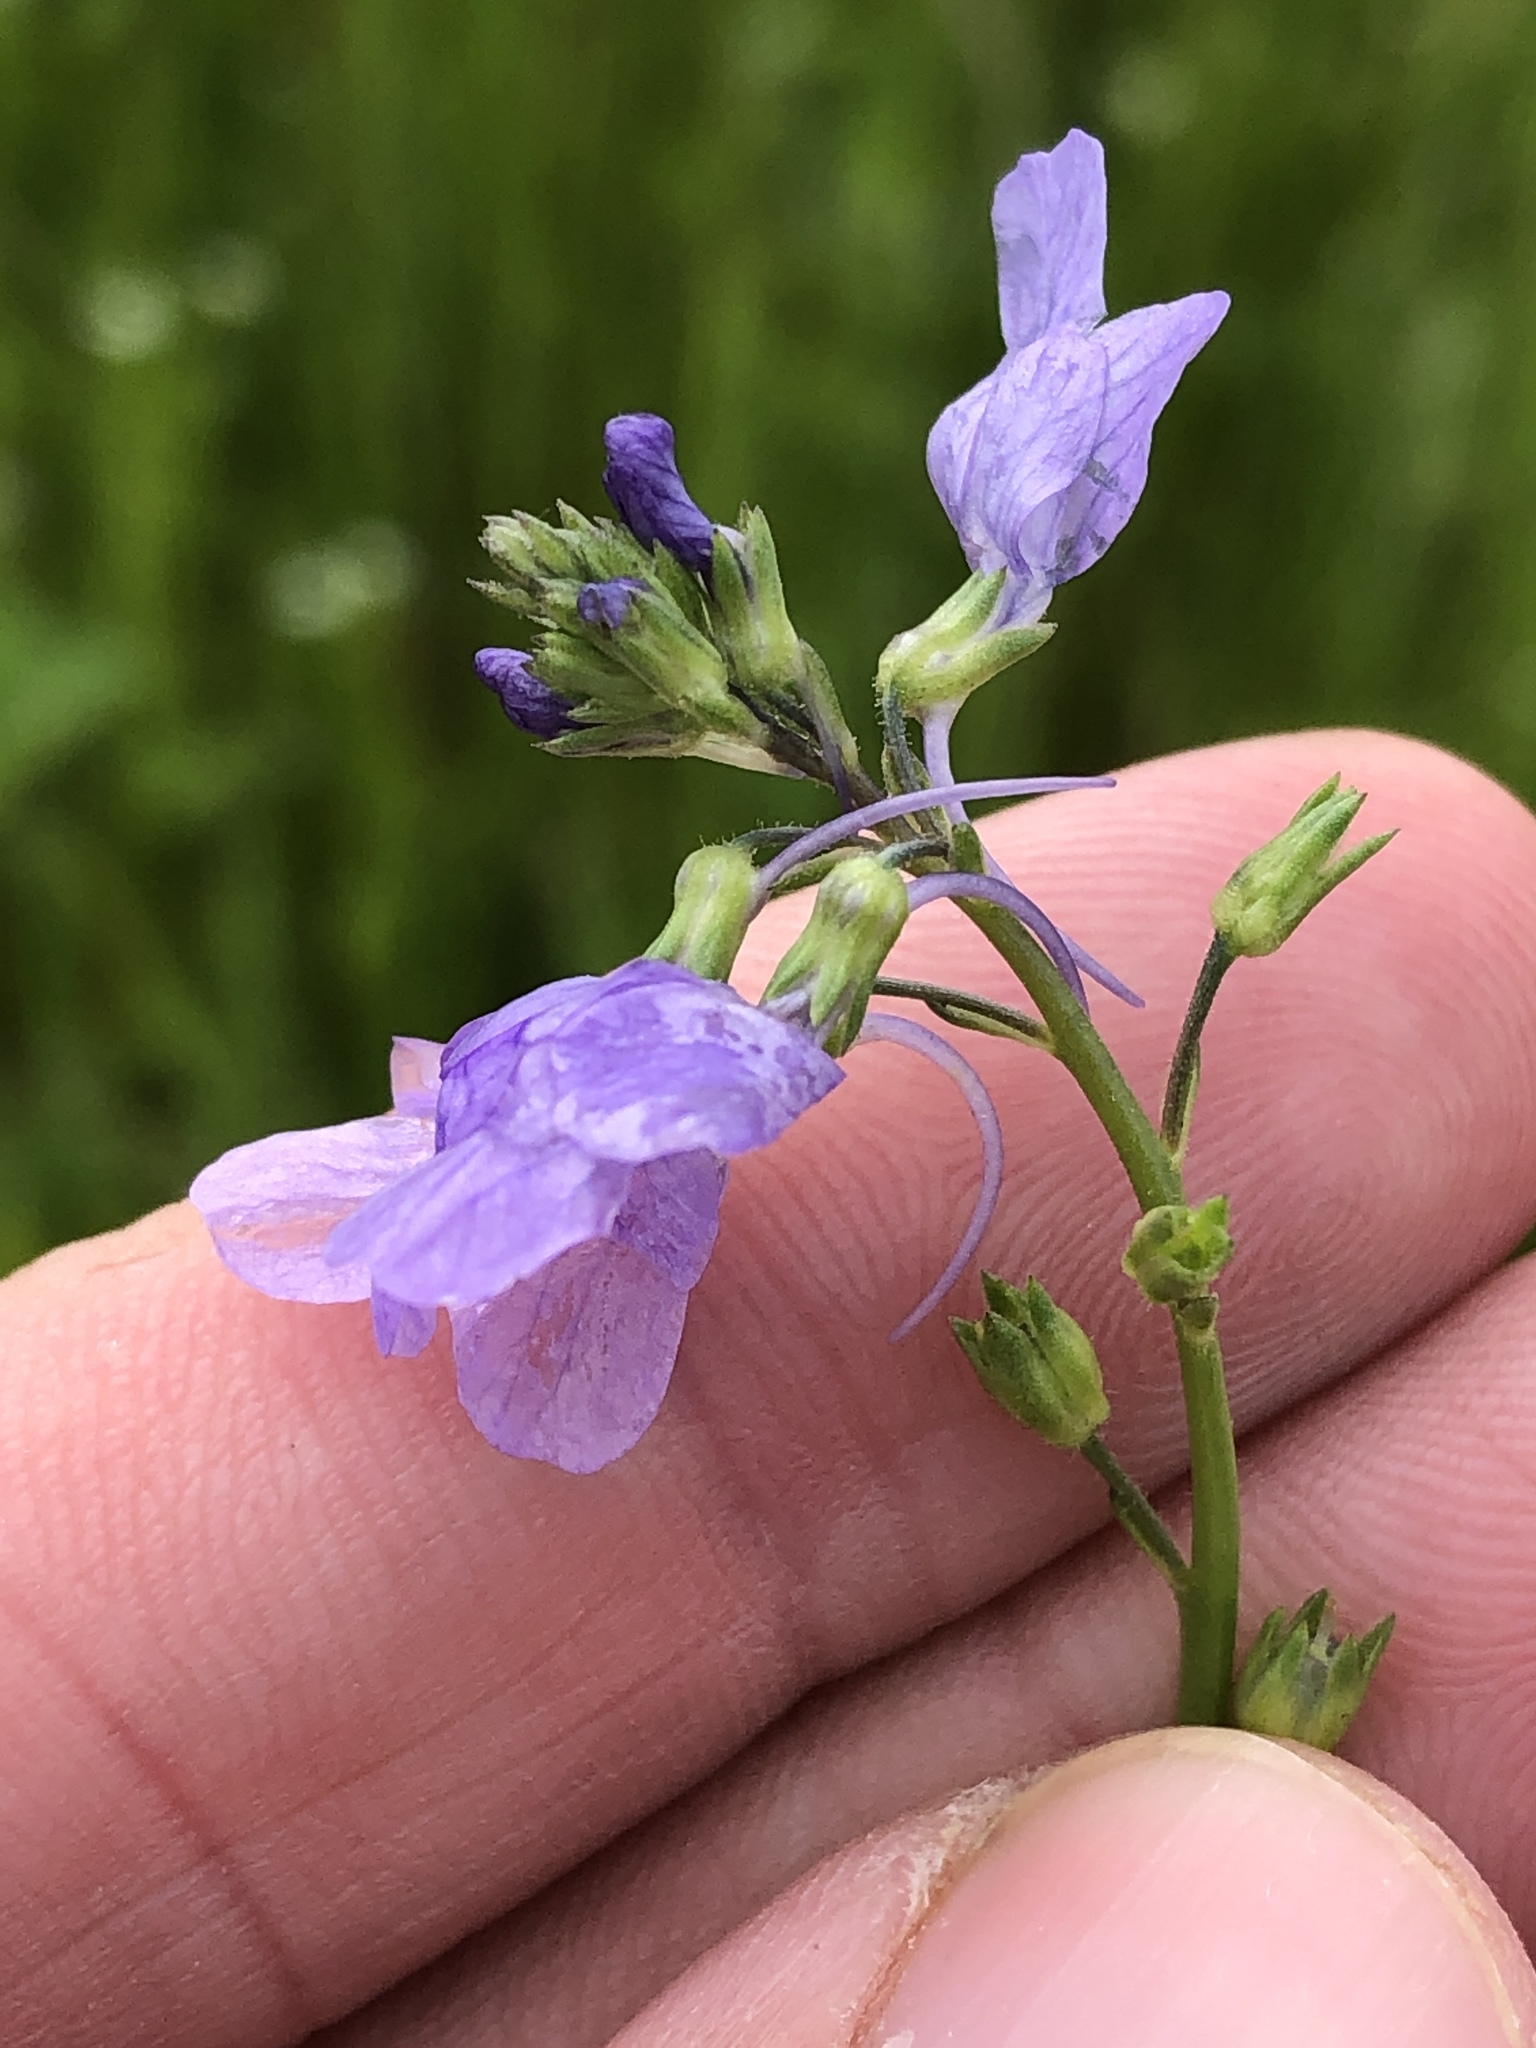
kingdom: Plantae
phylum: Tracheophyta
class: Magnoliopsida
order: Lamiales
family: Plantaginaceae
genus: Nuttallanthus
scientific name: Nuttallanthus texanus
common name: Texas toadflax
